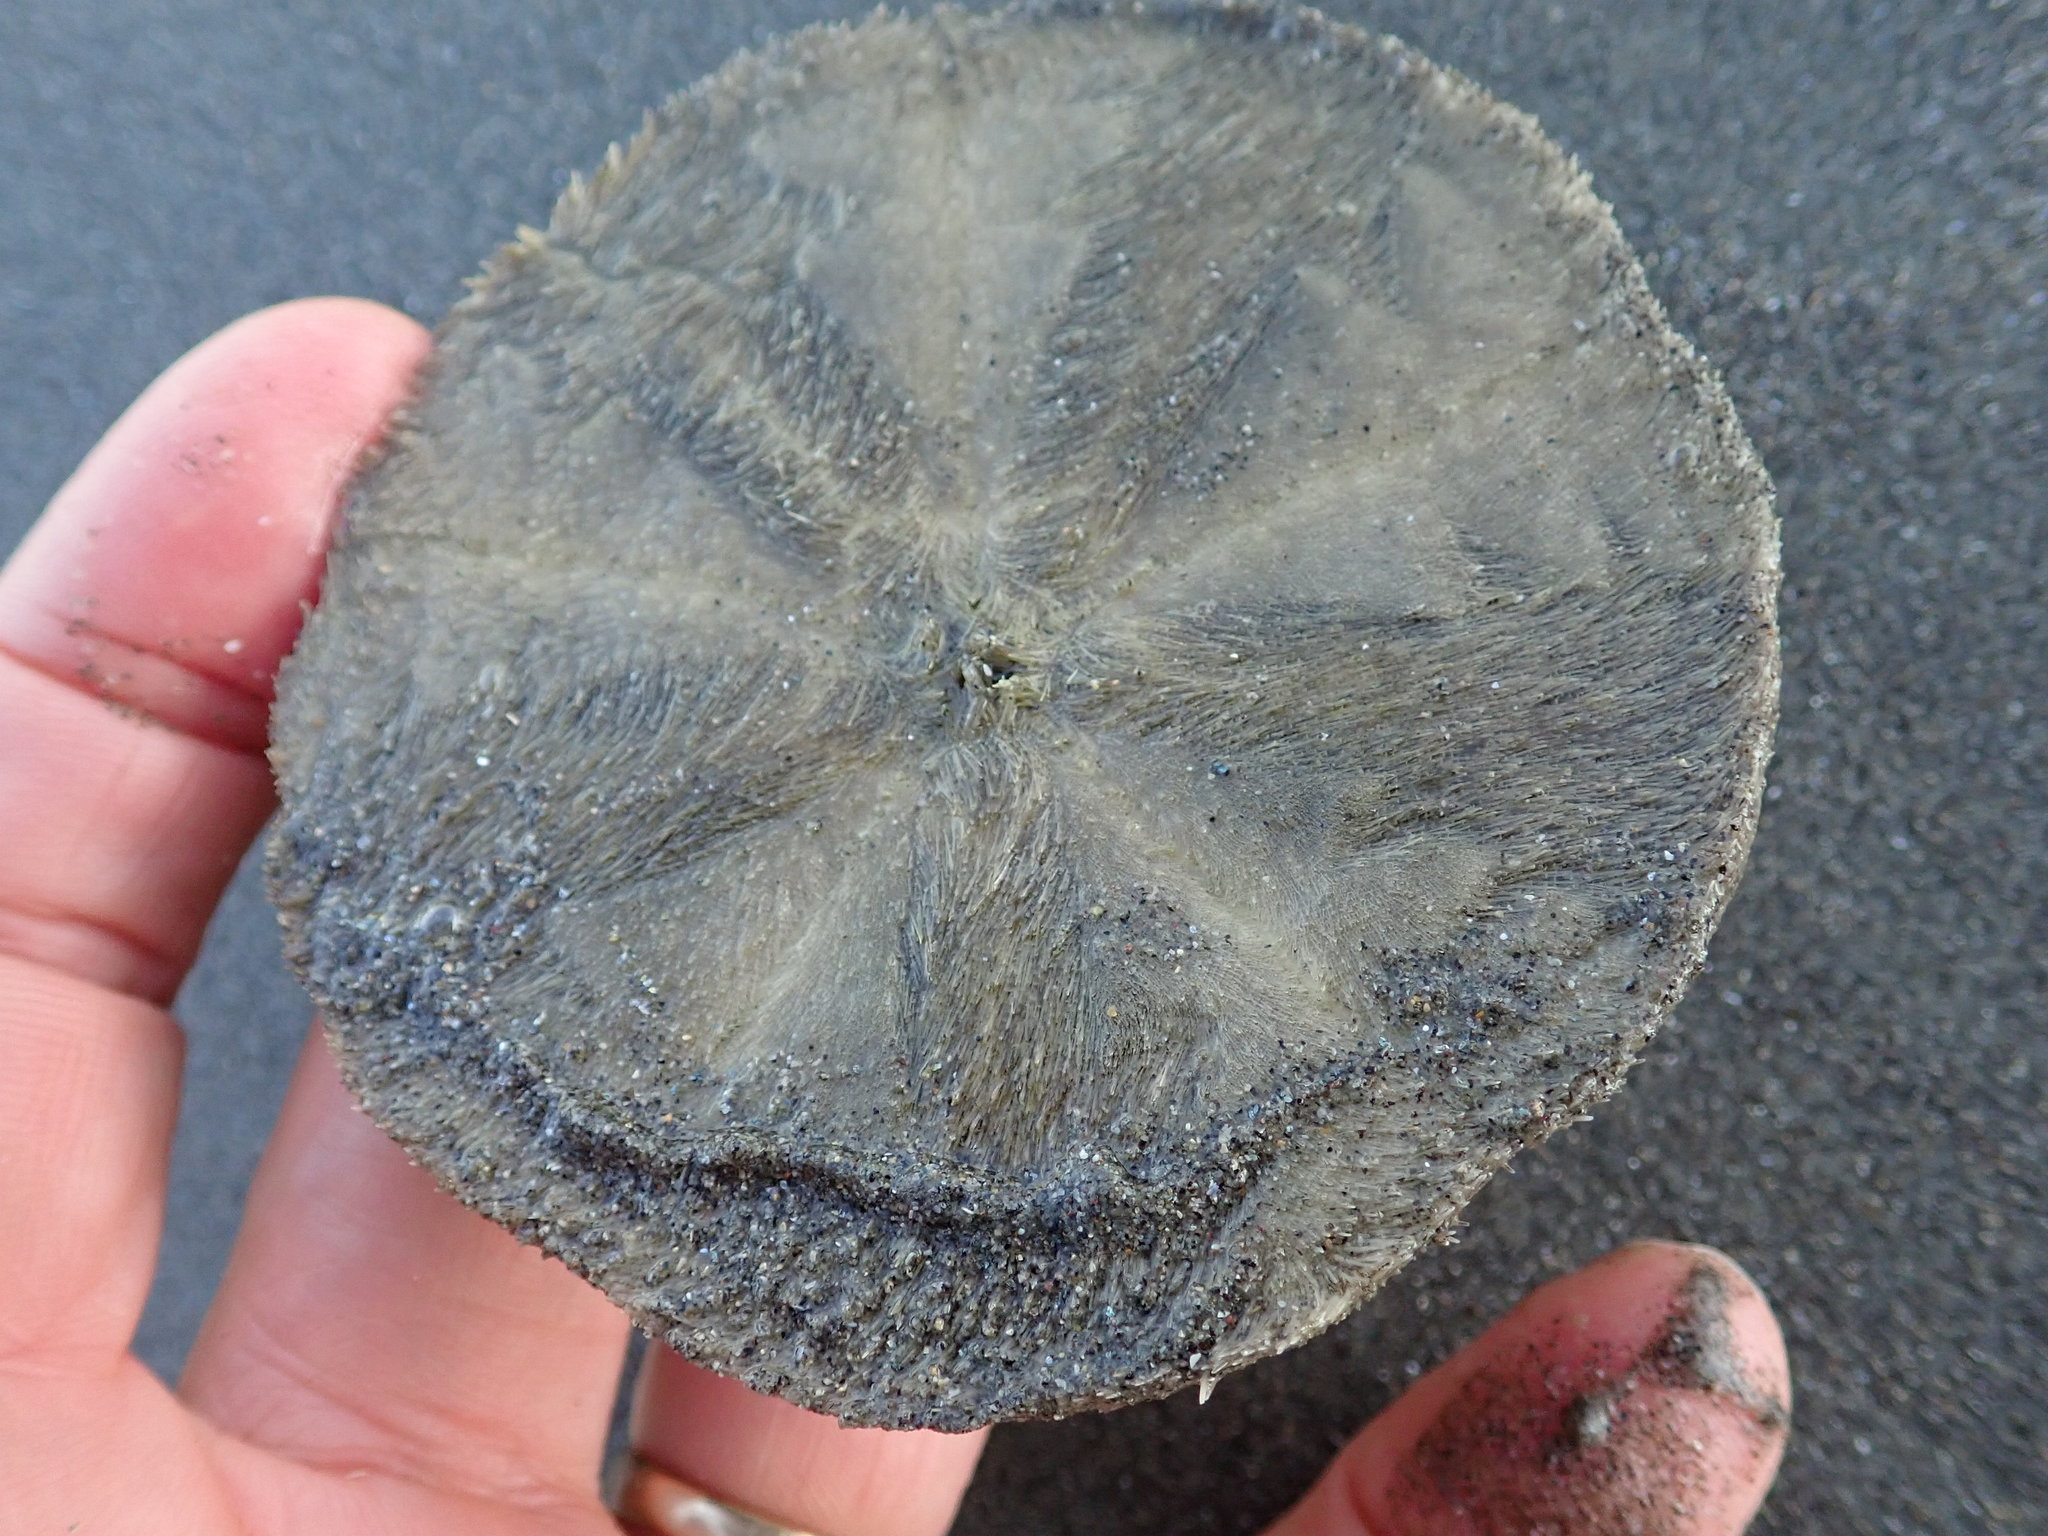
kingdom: Animalia
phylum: Echinodermata
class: Echinoidea
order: Clypeasteroida
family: Clypeasteridae
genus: Fellaster
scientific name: Fellaster zelandiae
